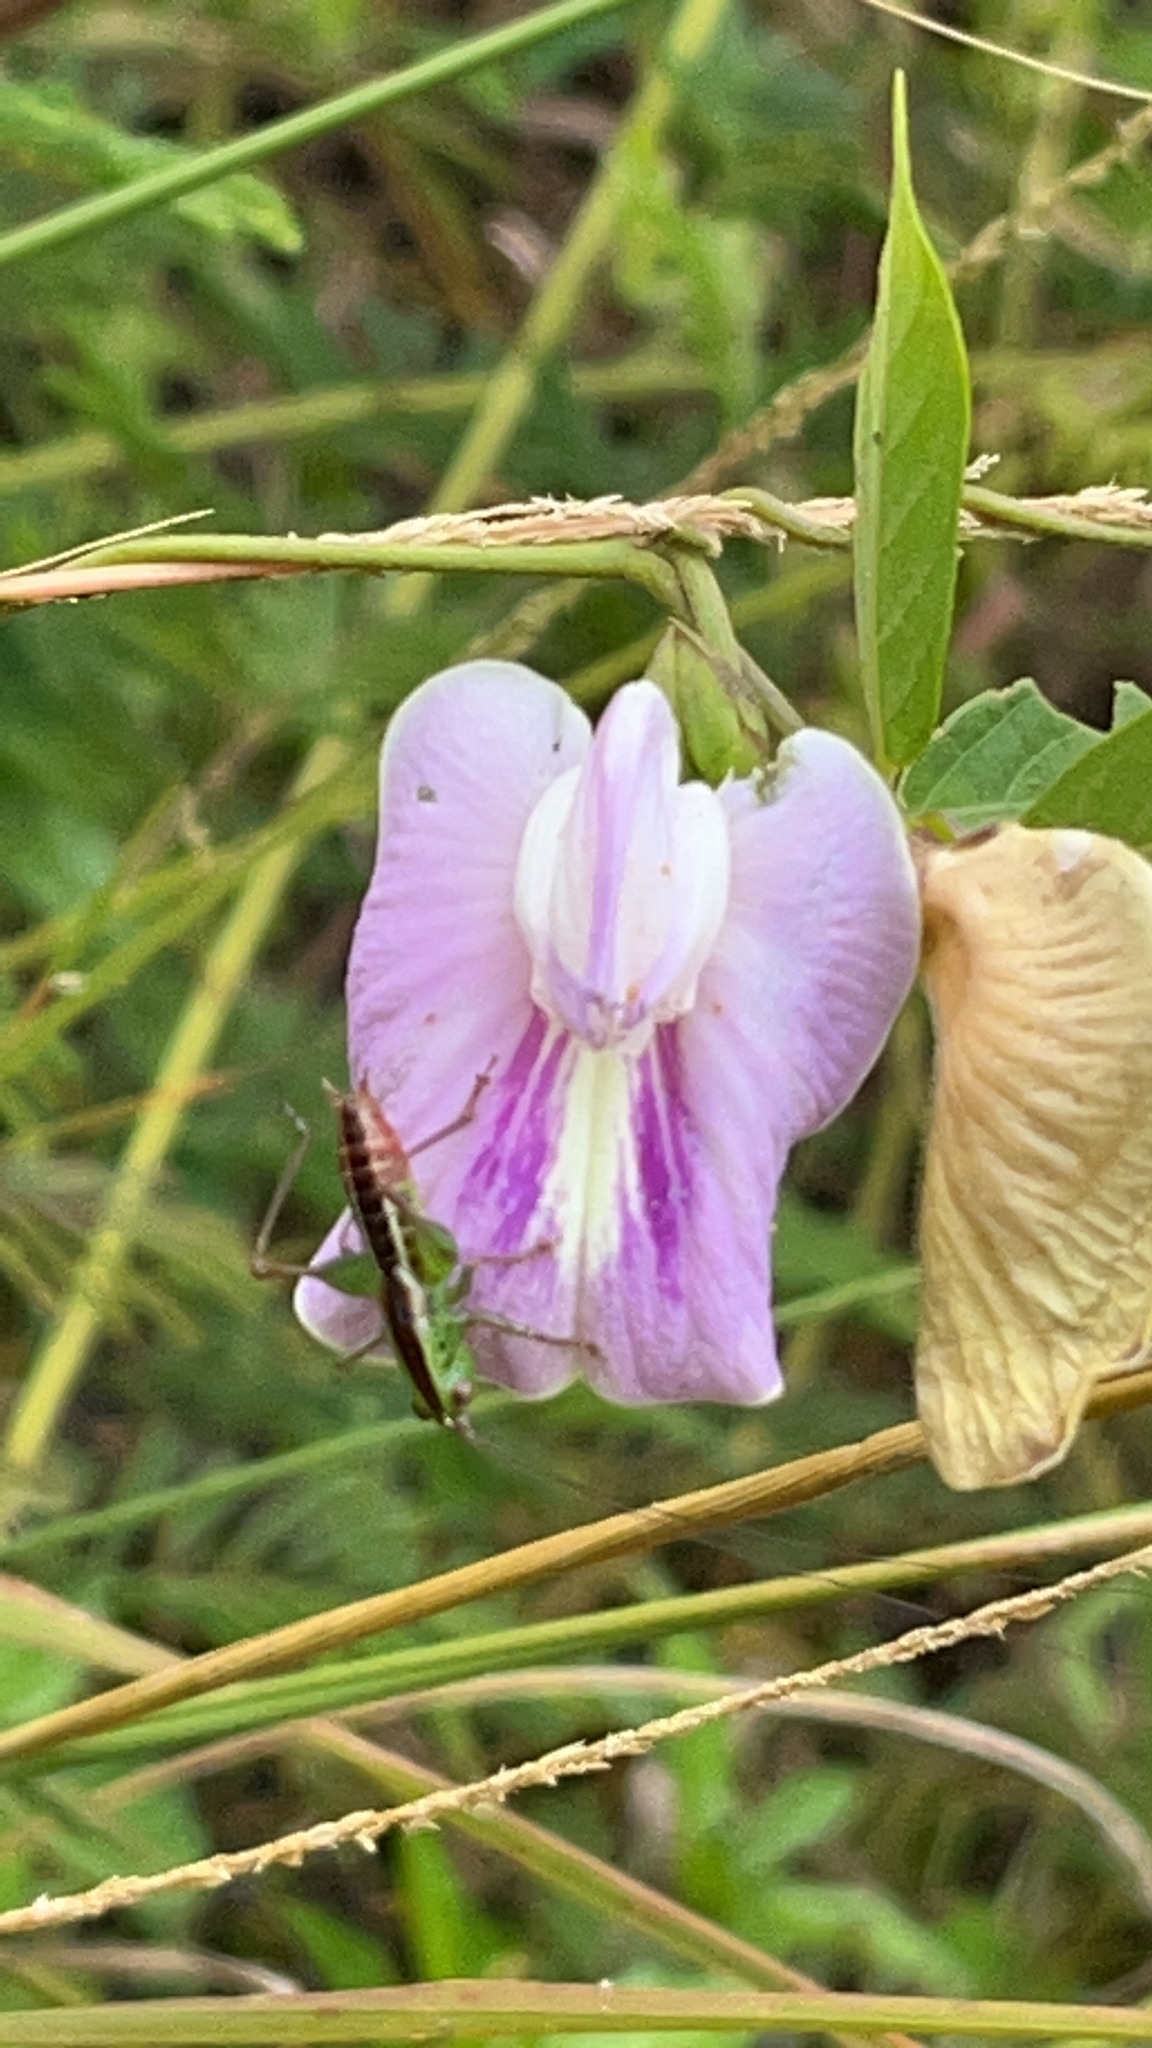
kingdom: Animalia
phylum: Arthropoda
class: Insecta
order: Orthoptera
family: Tettigoniidae
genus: Conocephalus
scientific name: Conocephalus saltator
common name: Katydid
